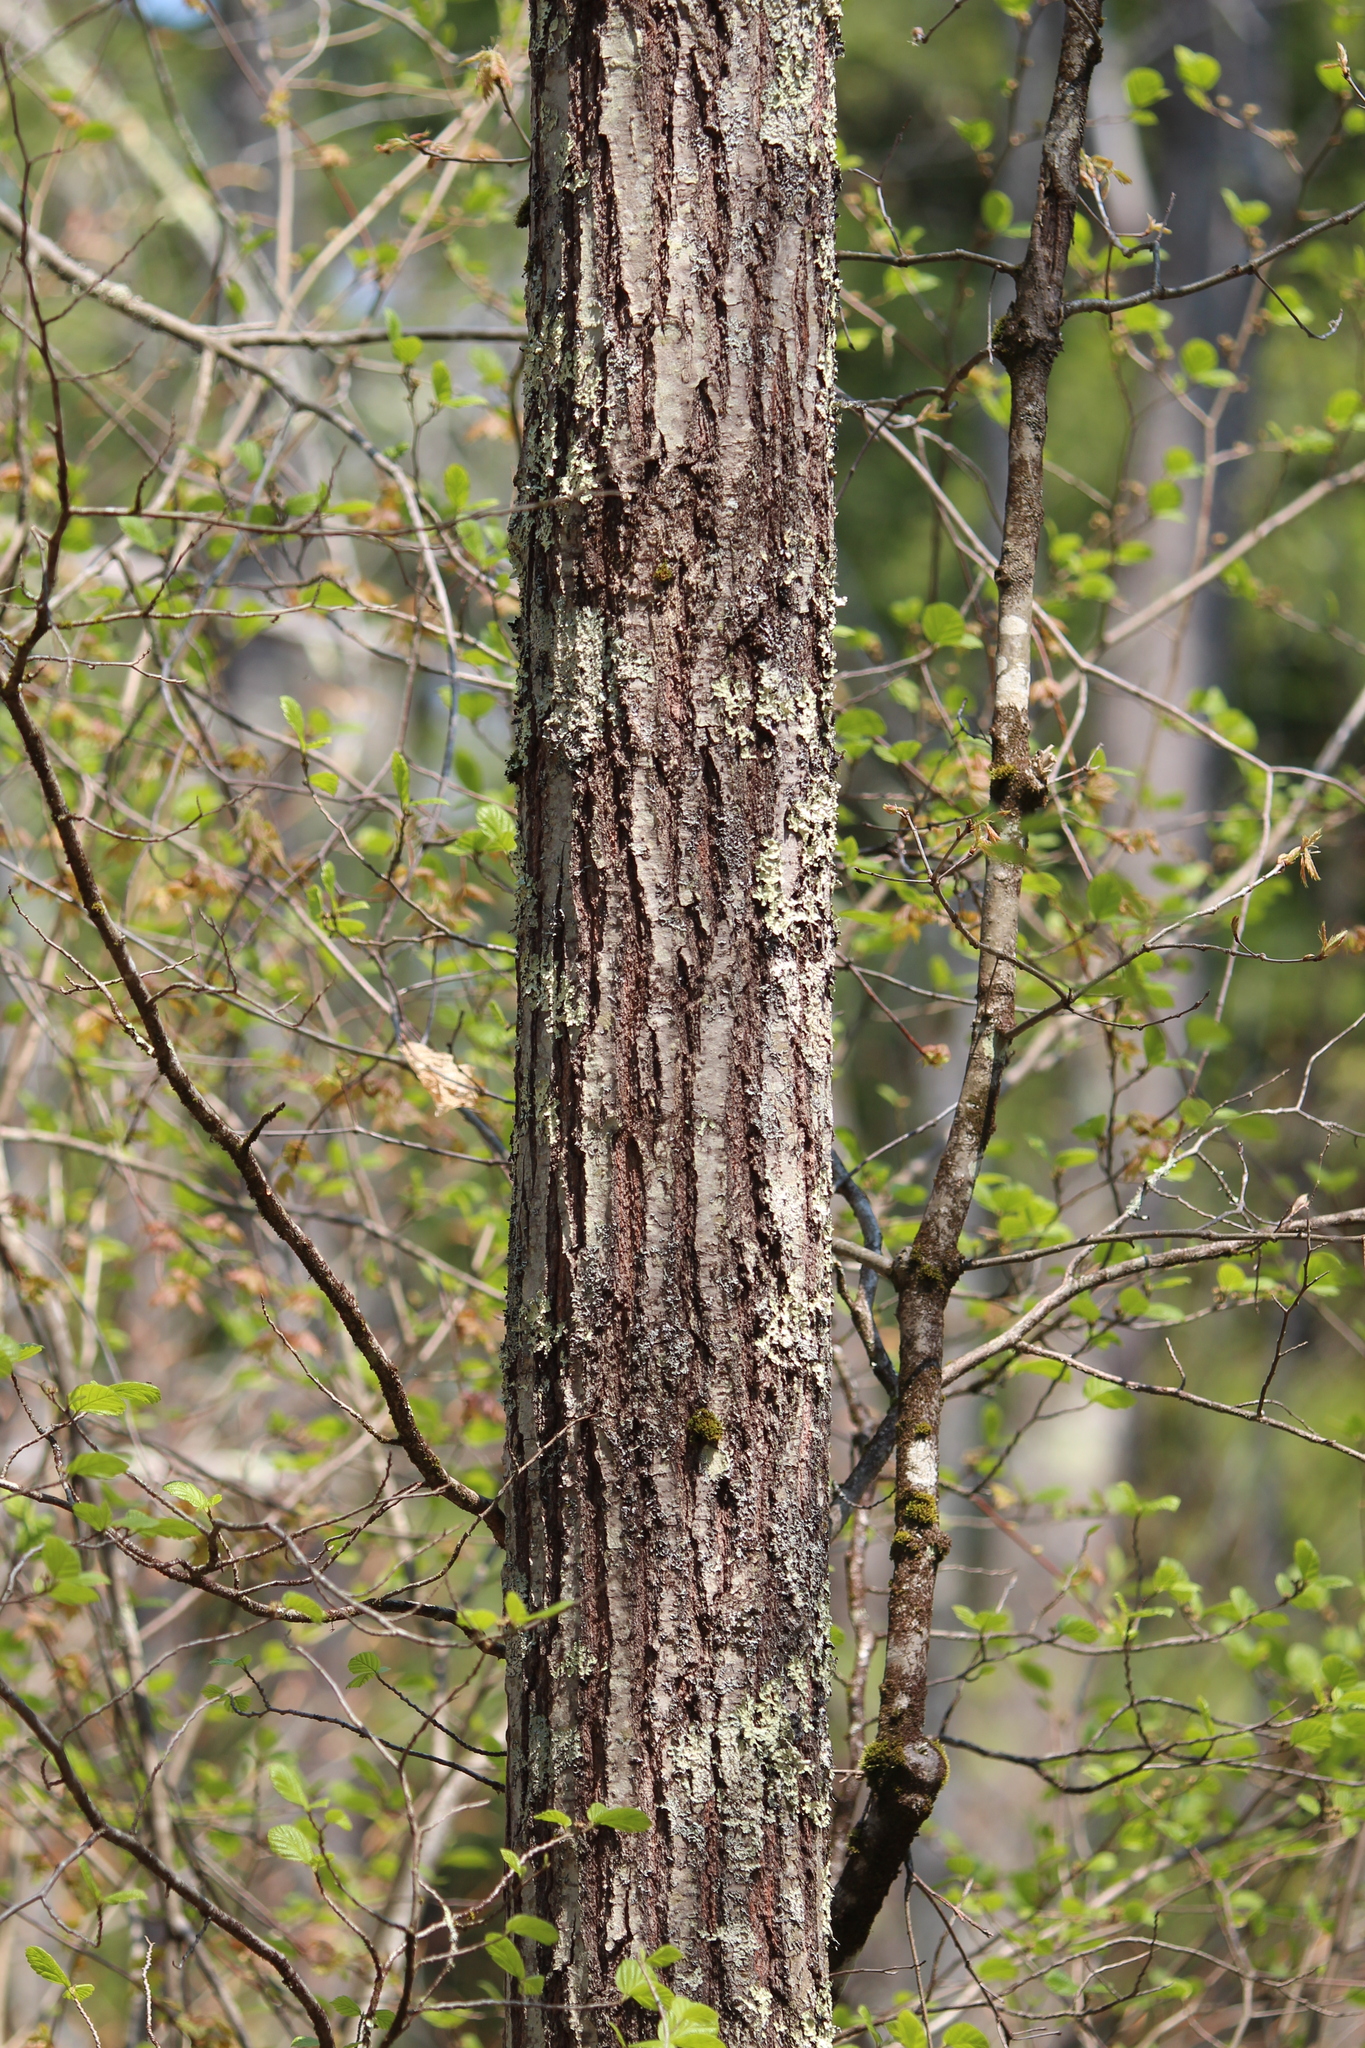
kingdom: Plantae
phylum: Tracheophyta
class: Magnoliopsida
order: Fagales
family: Fagaceae
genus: Quercus
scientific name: Quercus rubra
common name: Red oak
